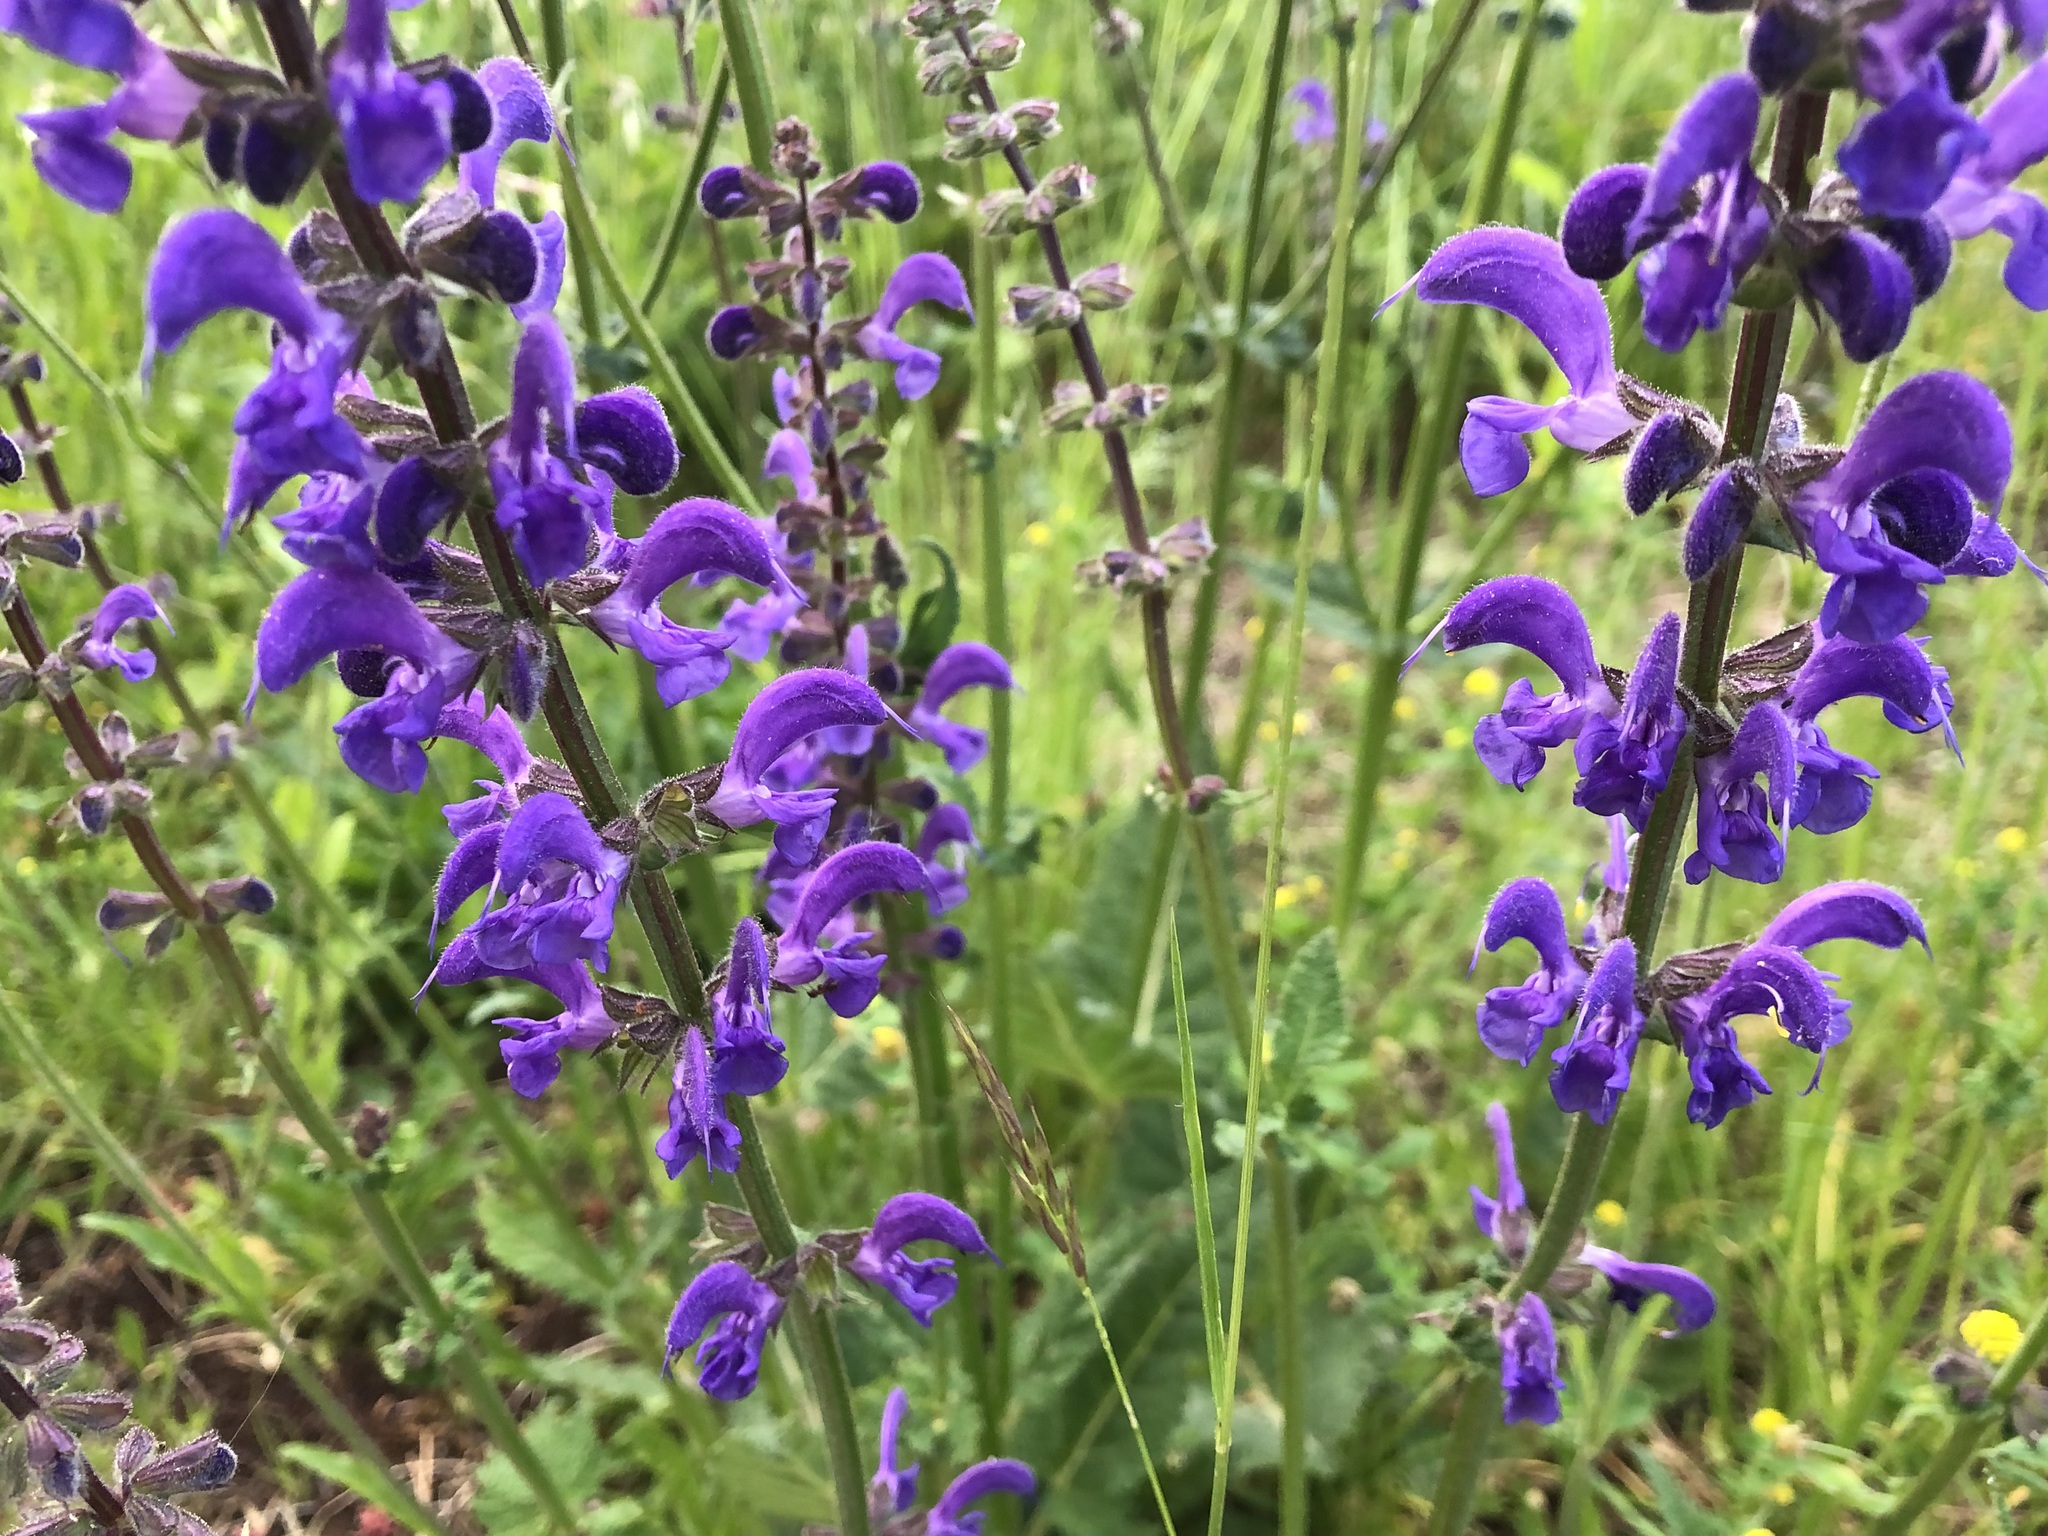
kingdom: Plantae
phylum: Tracheophyta
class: Magnoliopsida
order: Lamiales
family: Lamiaceae
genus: Salvia
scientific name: Salvia pratensis
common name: Meadow sage
